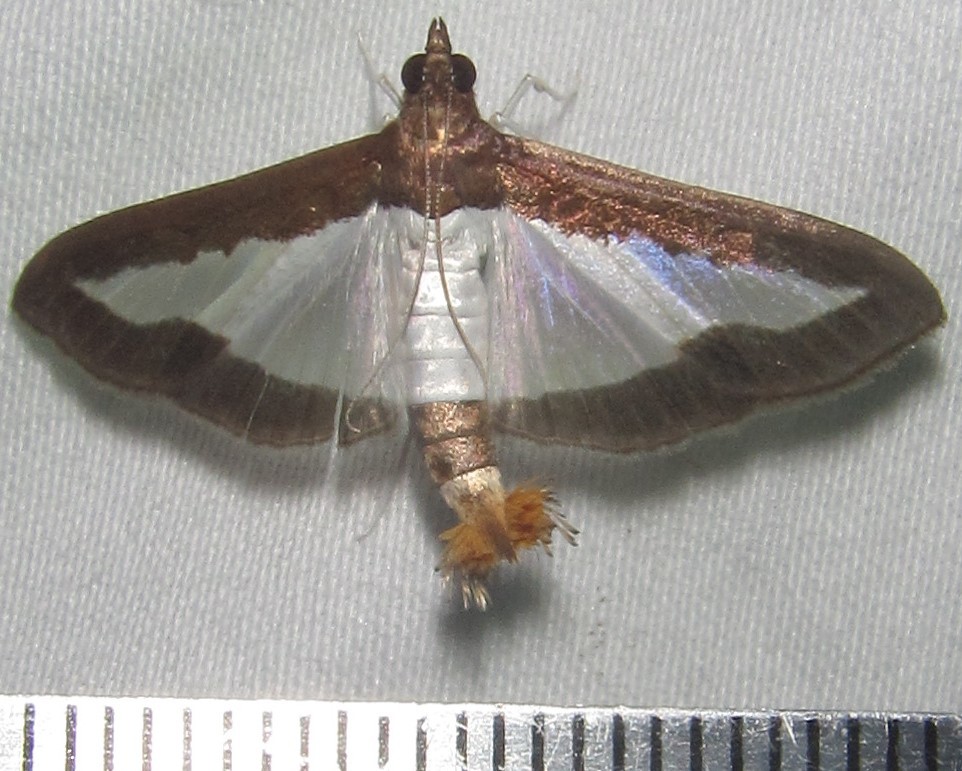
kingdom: Animalia
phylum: Arthropoda
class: Insecta
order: Lepidoptera
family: Crambidae
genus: Diaphania
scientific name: Diaphania indica
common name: Cucumber moth
